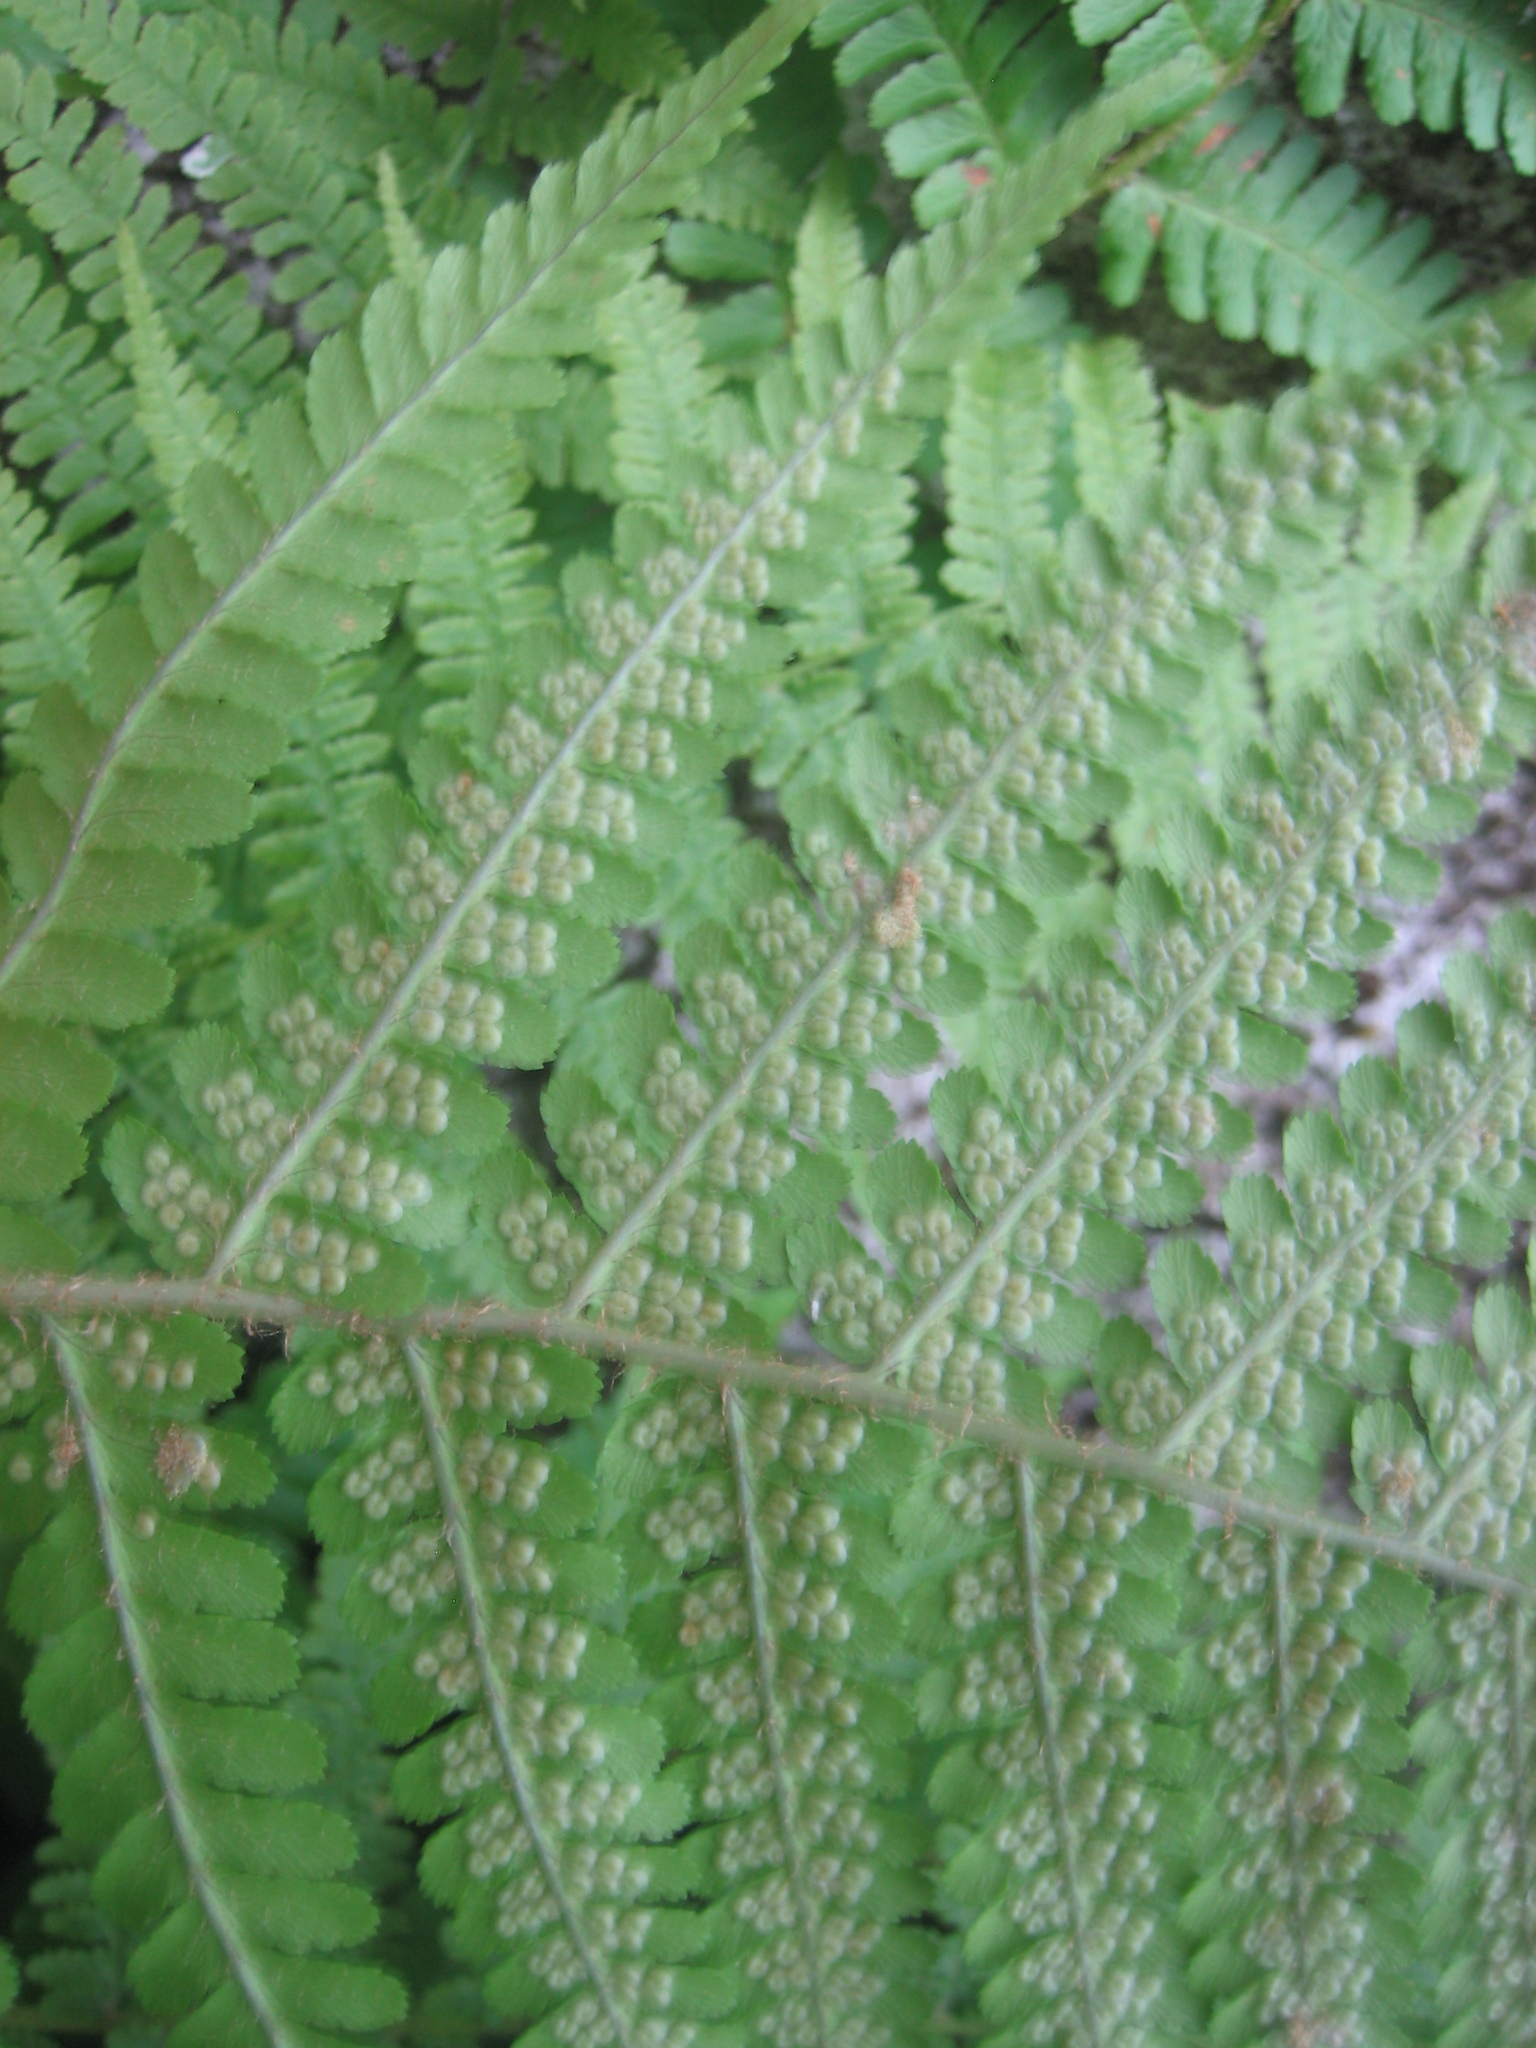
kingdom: Plantae
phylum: Tracheophyta
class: Polypodiopsida
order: Polypodiales
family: Dryopteridaceae
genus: Dryopteris
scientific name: Dryopteris filix-mas
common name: Male fern
